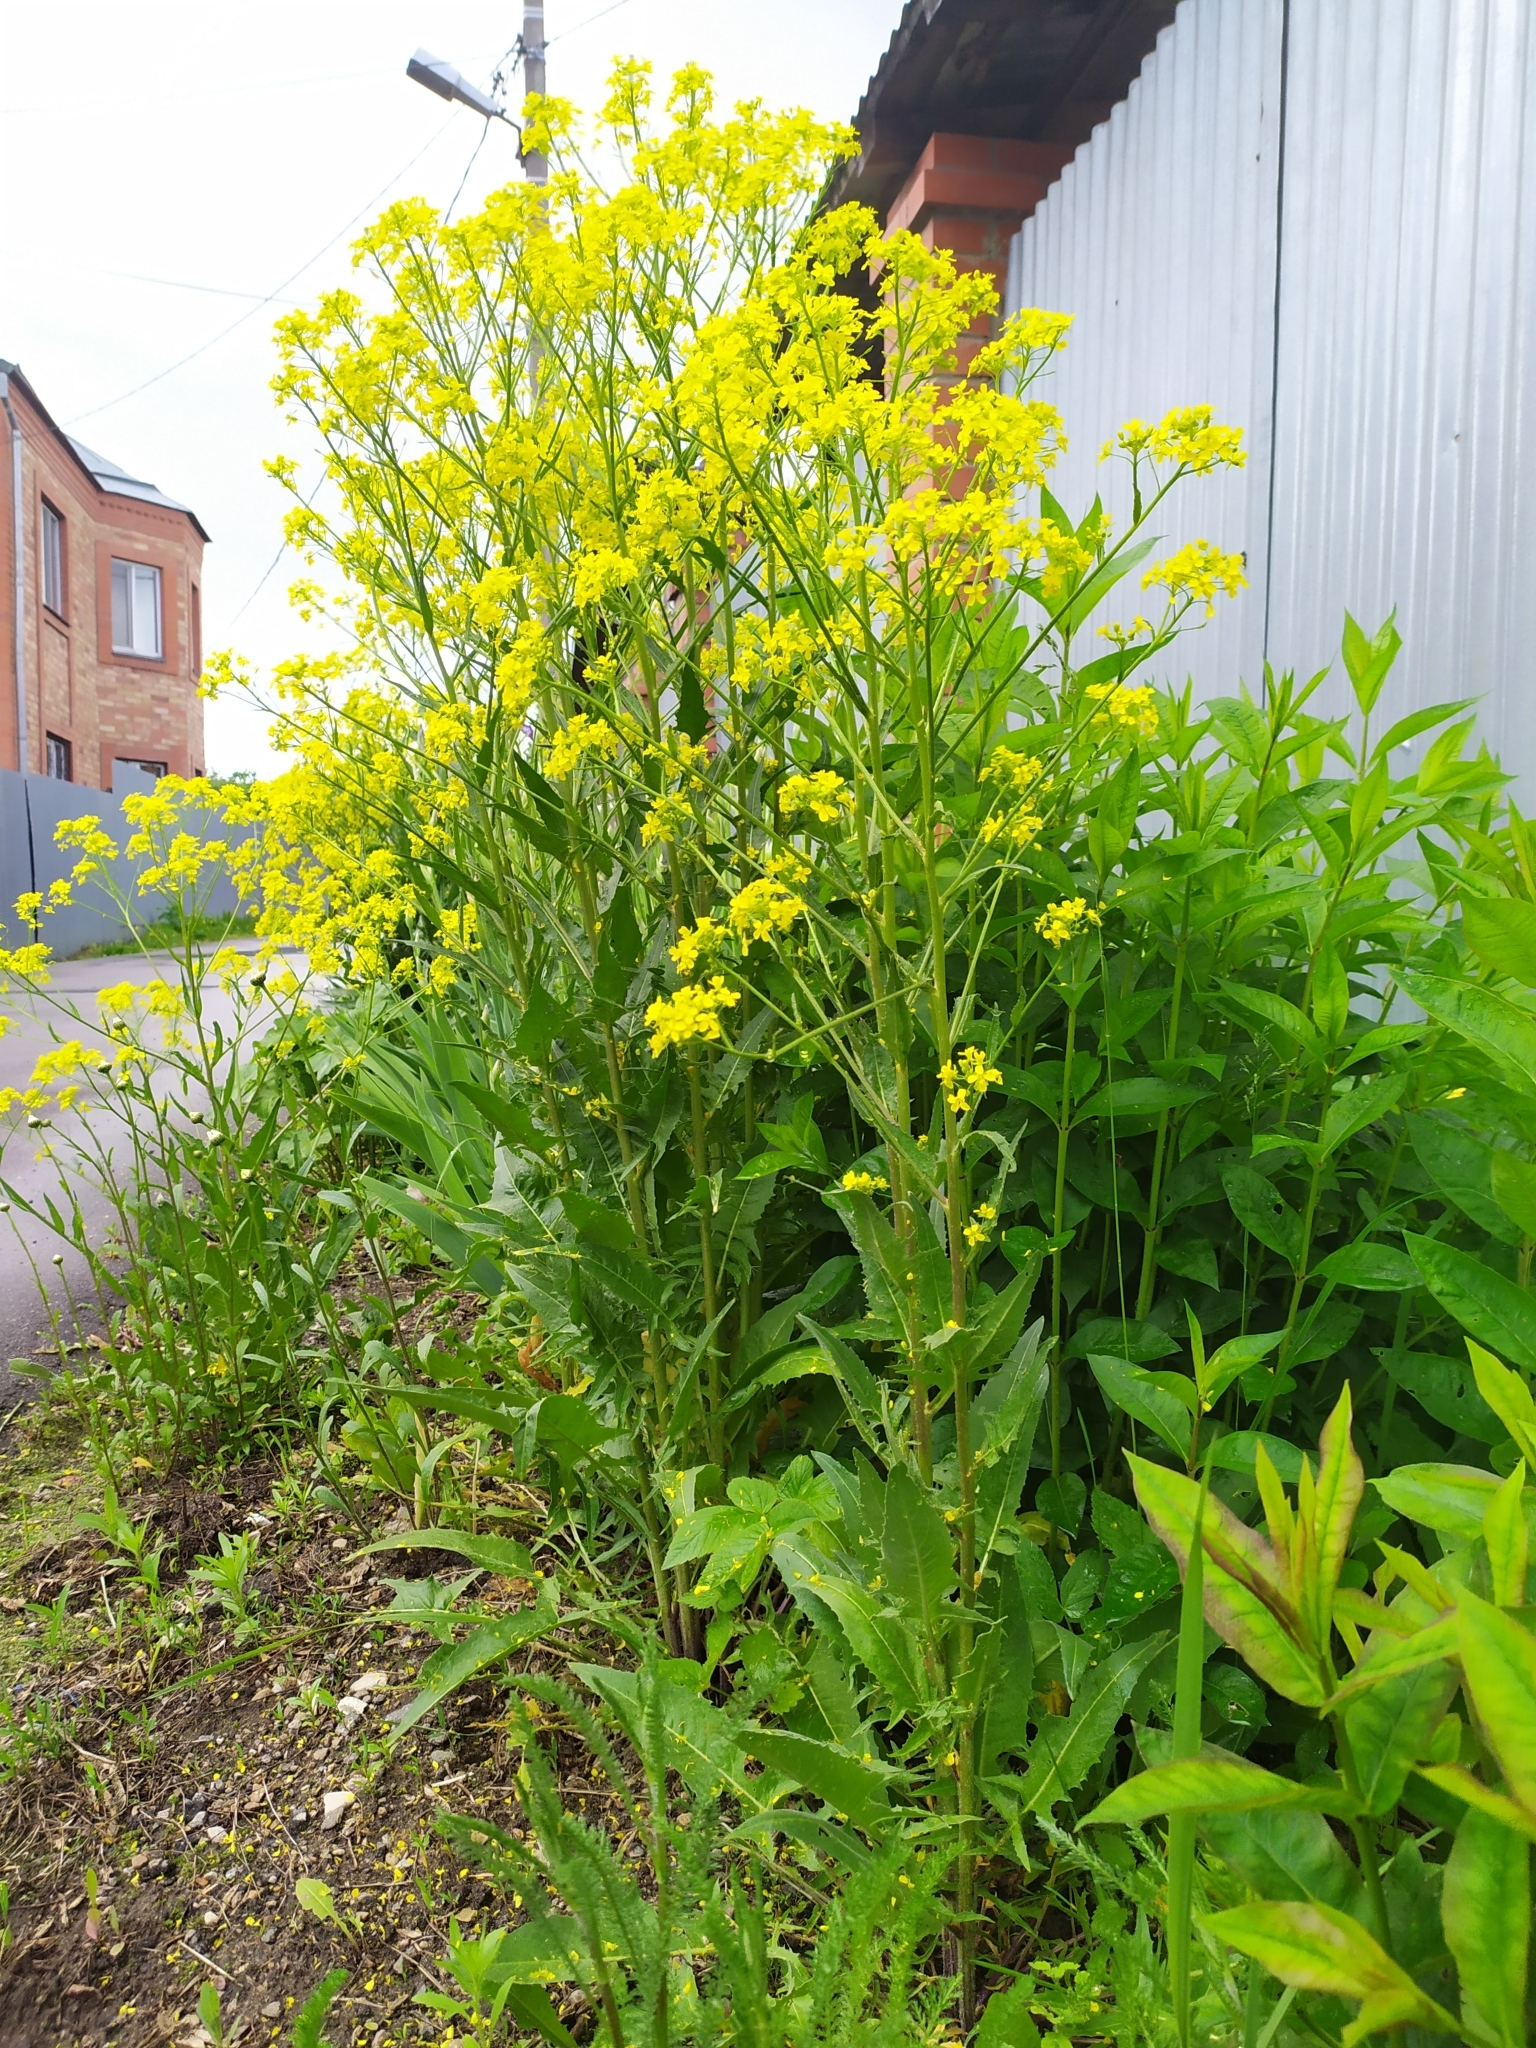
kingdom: Plantae
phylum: Tracheophyta
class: Magnoliopsida
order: Brassicales
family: Brassicaceae
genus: Bunias
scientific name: Bunias orientalis
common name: Warty-cabbage
